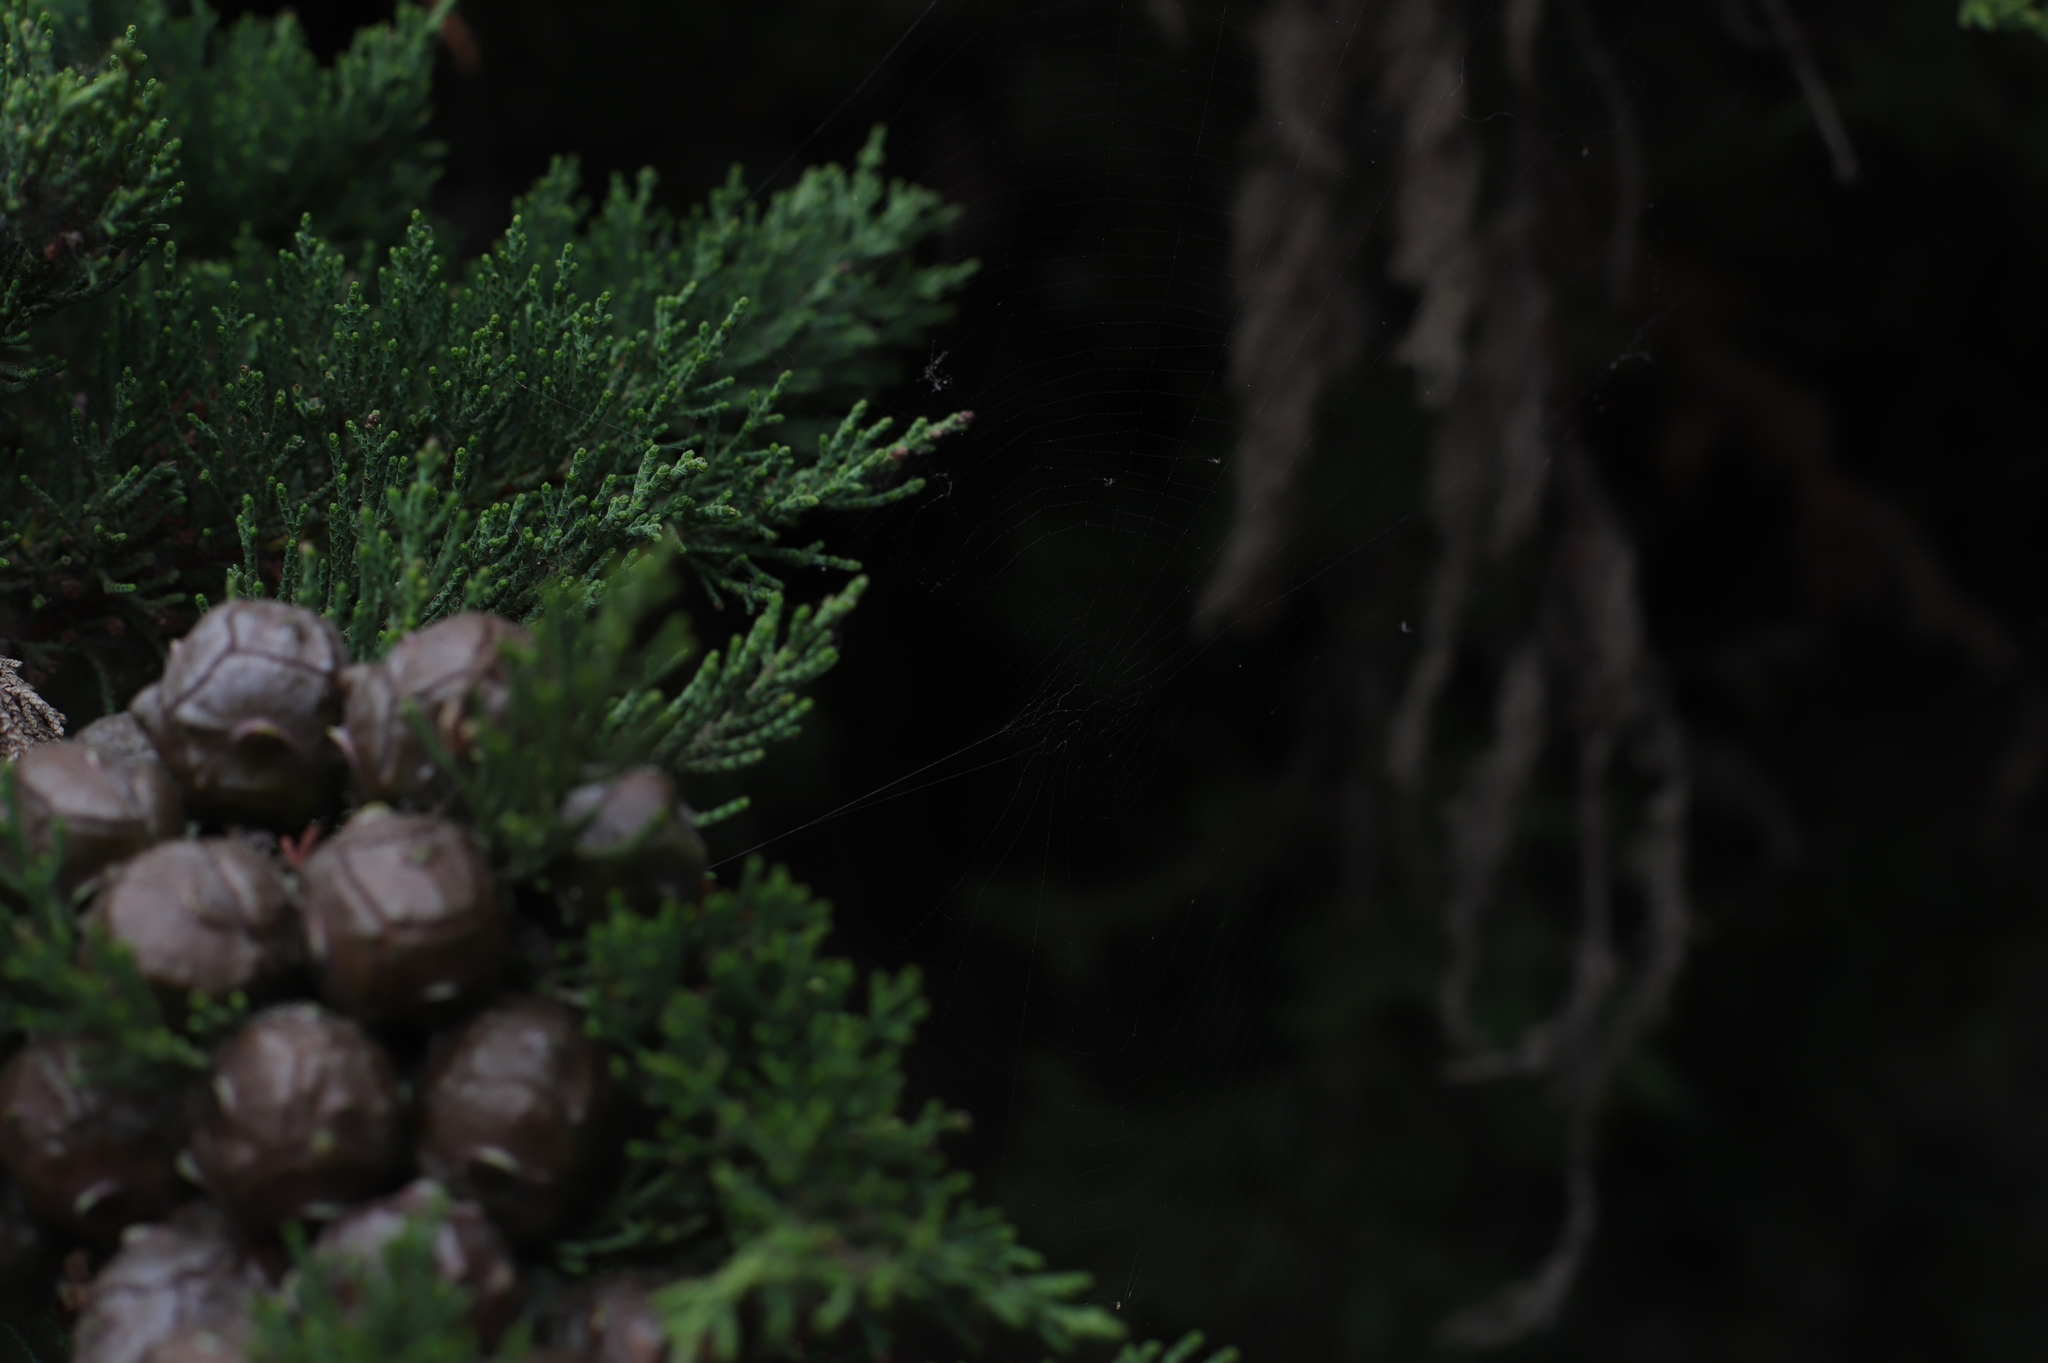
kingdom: Plantae
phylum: Tracheophyta
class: Pinopsida
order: Pinales
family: Cupressaceae
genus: Cupressus
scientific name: Cupressus macrocarpa
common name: Monterey cypress
